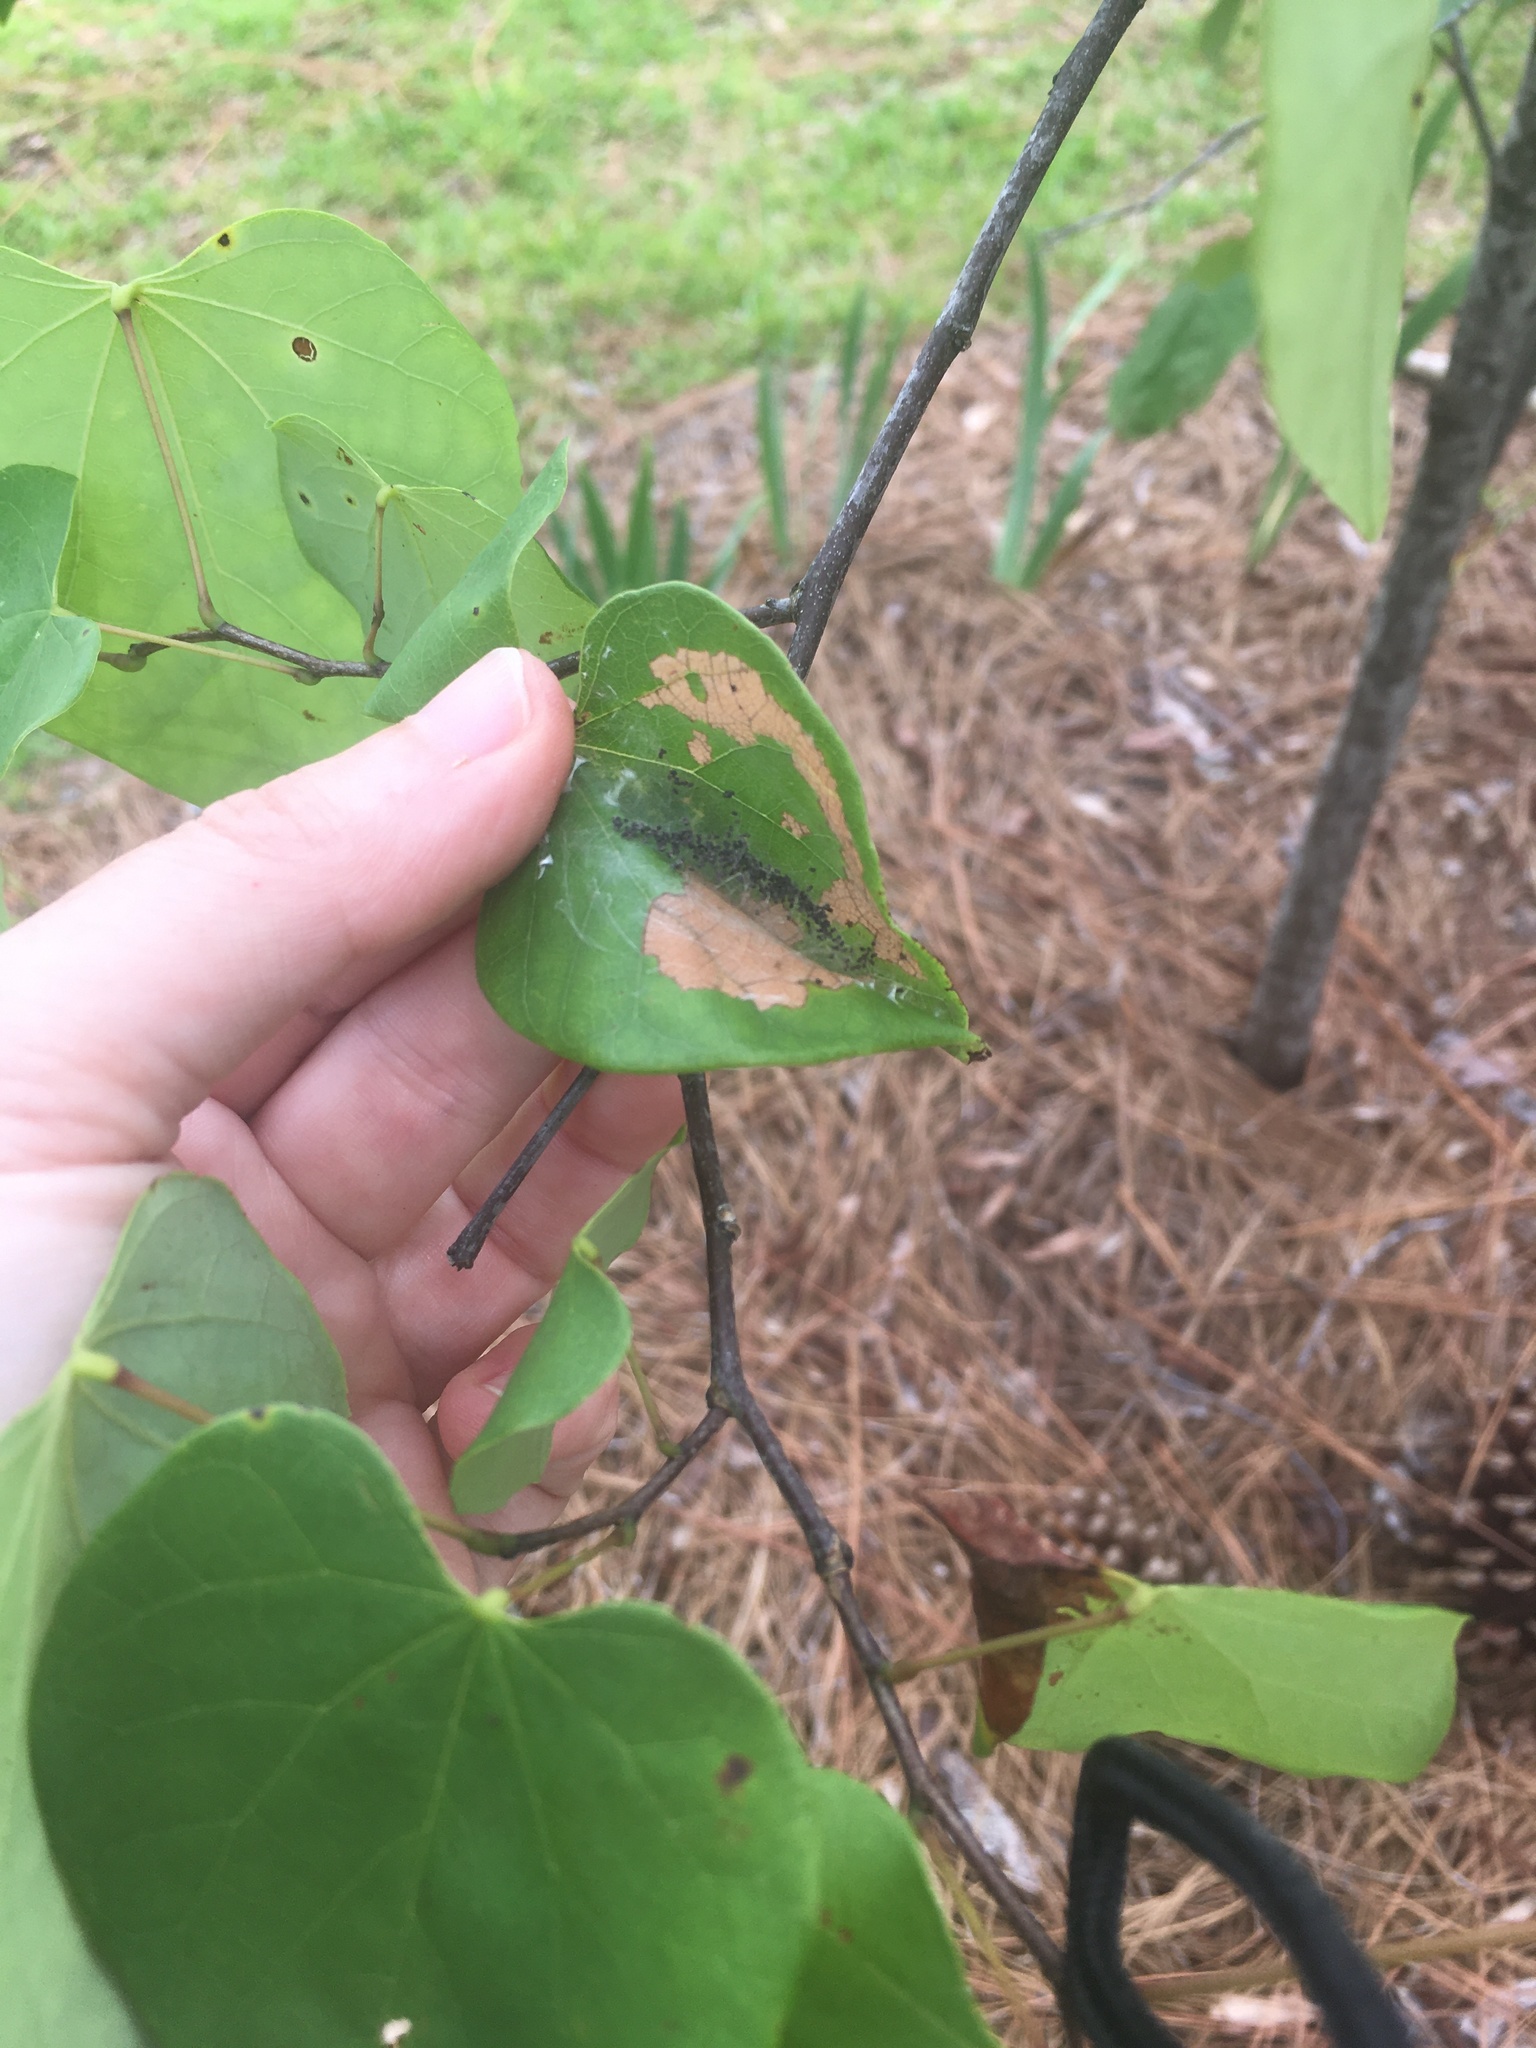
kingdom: Animalia
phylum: Arthropoda
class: Insecta
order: Lepidoptera
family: Gelechiidae
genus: Fascista
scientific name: Fascista cercerisella
